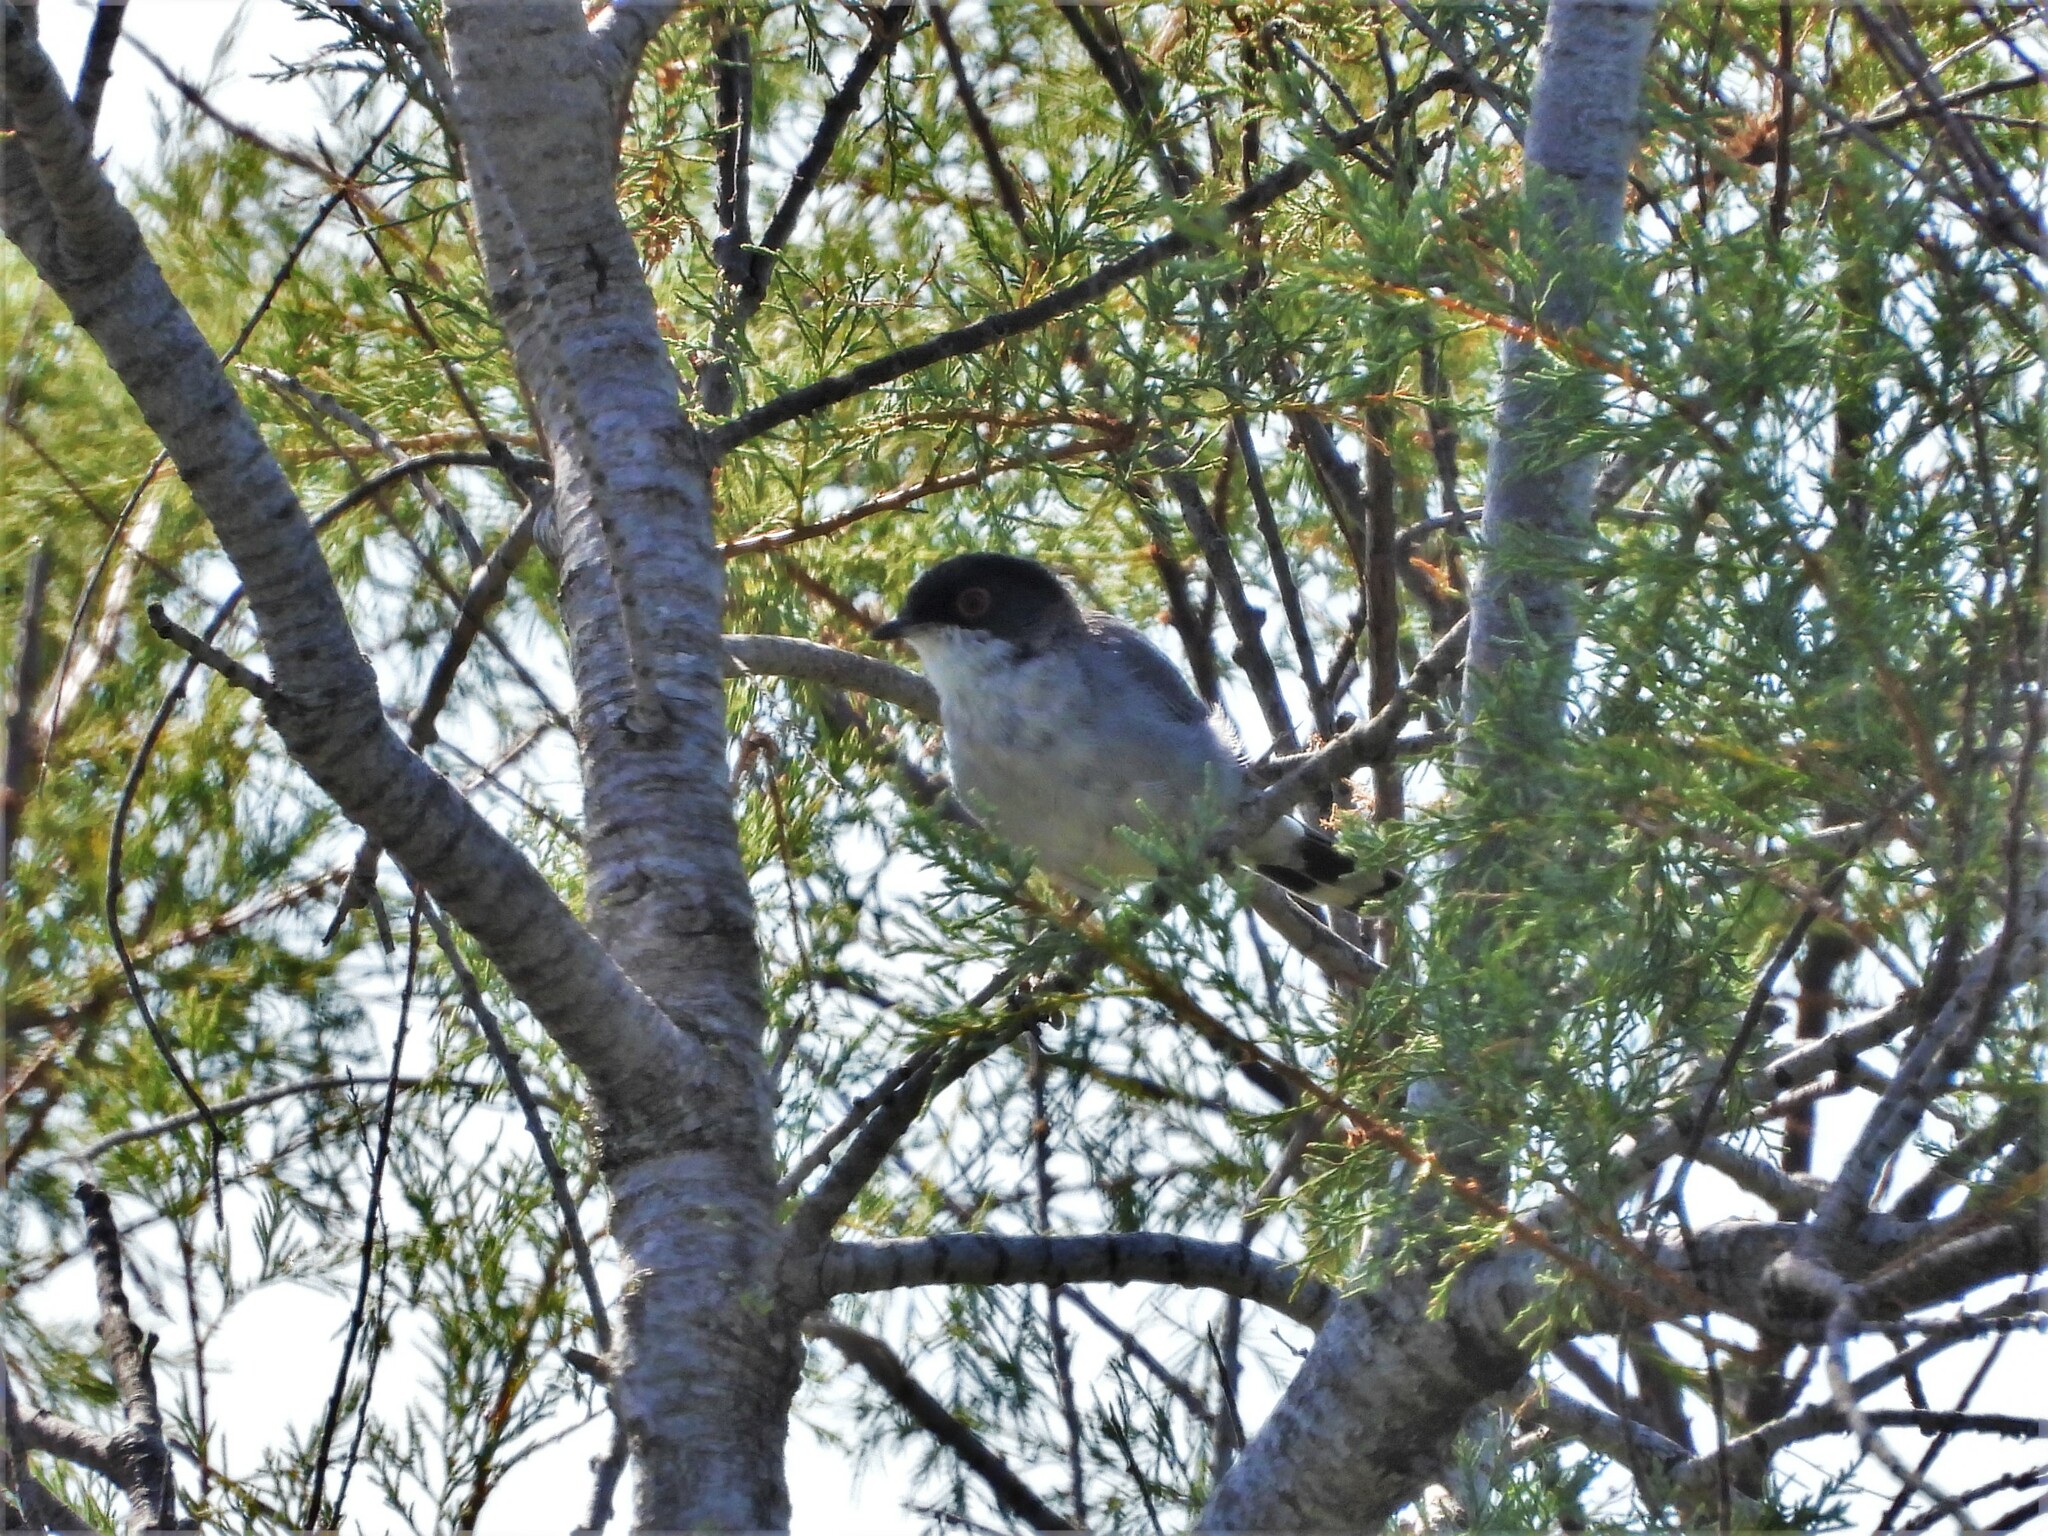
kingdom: Animalia
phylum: Chordata
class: Aves
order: Passeriformes
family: Sylviidae
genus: Curruca
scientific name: Curruca melanocephala
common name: Sardinian warbler
